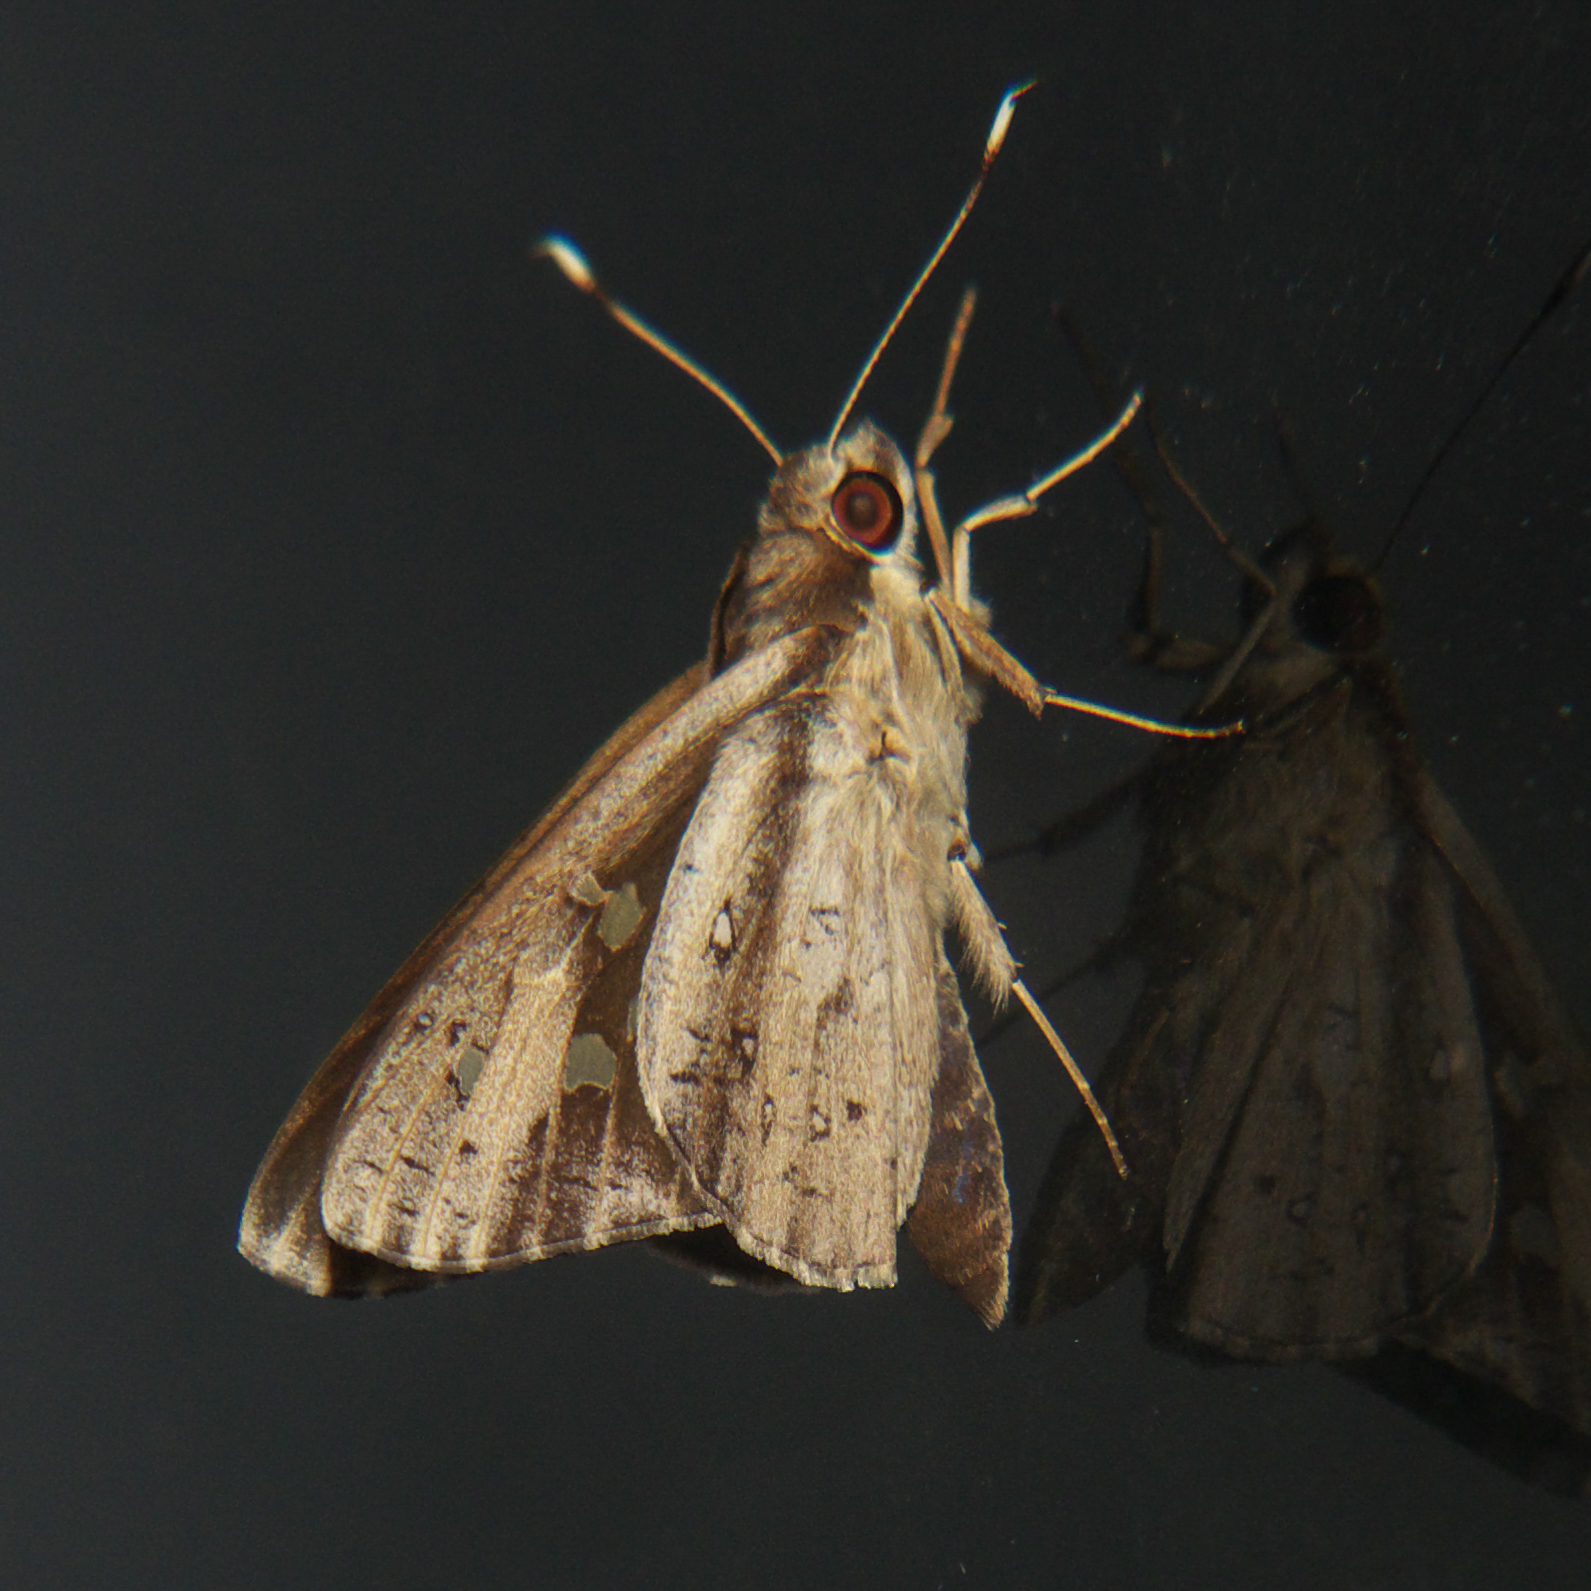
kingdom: Animalia
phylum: Arthropoda
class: Insecta
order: Lepidoptera
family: Hesperiidae
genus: Hidari
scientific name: Hidari bhawani
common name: Veined palmer
